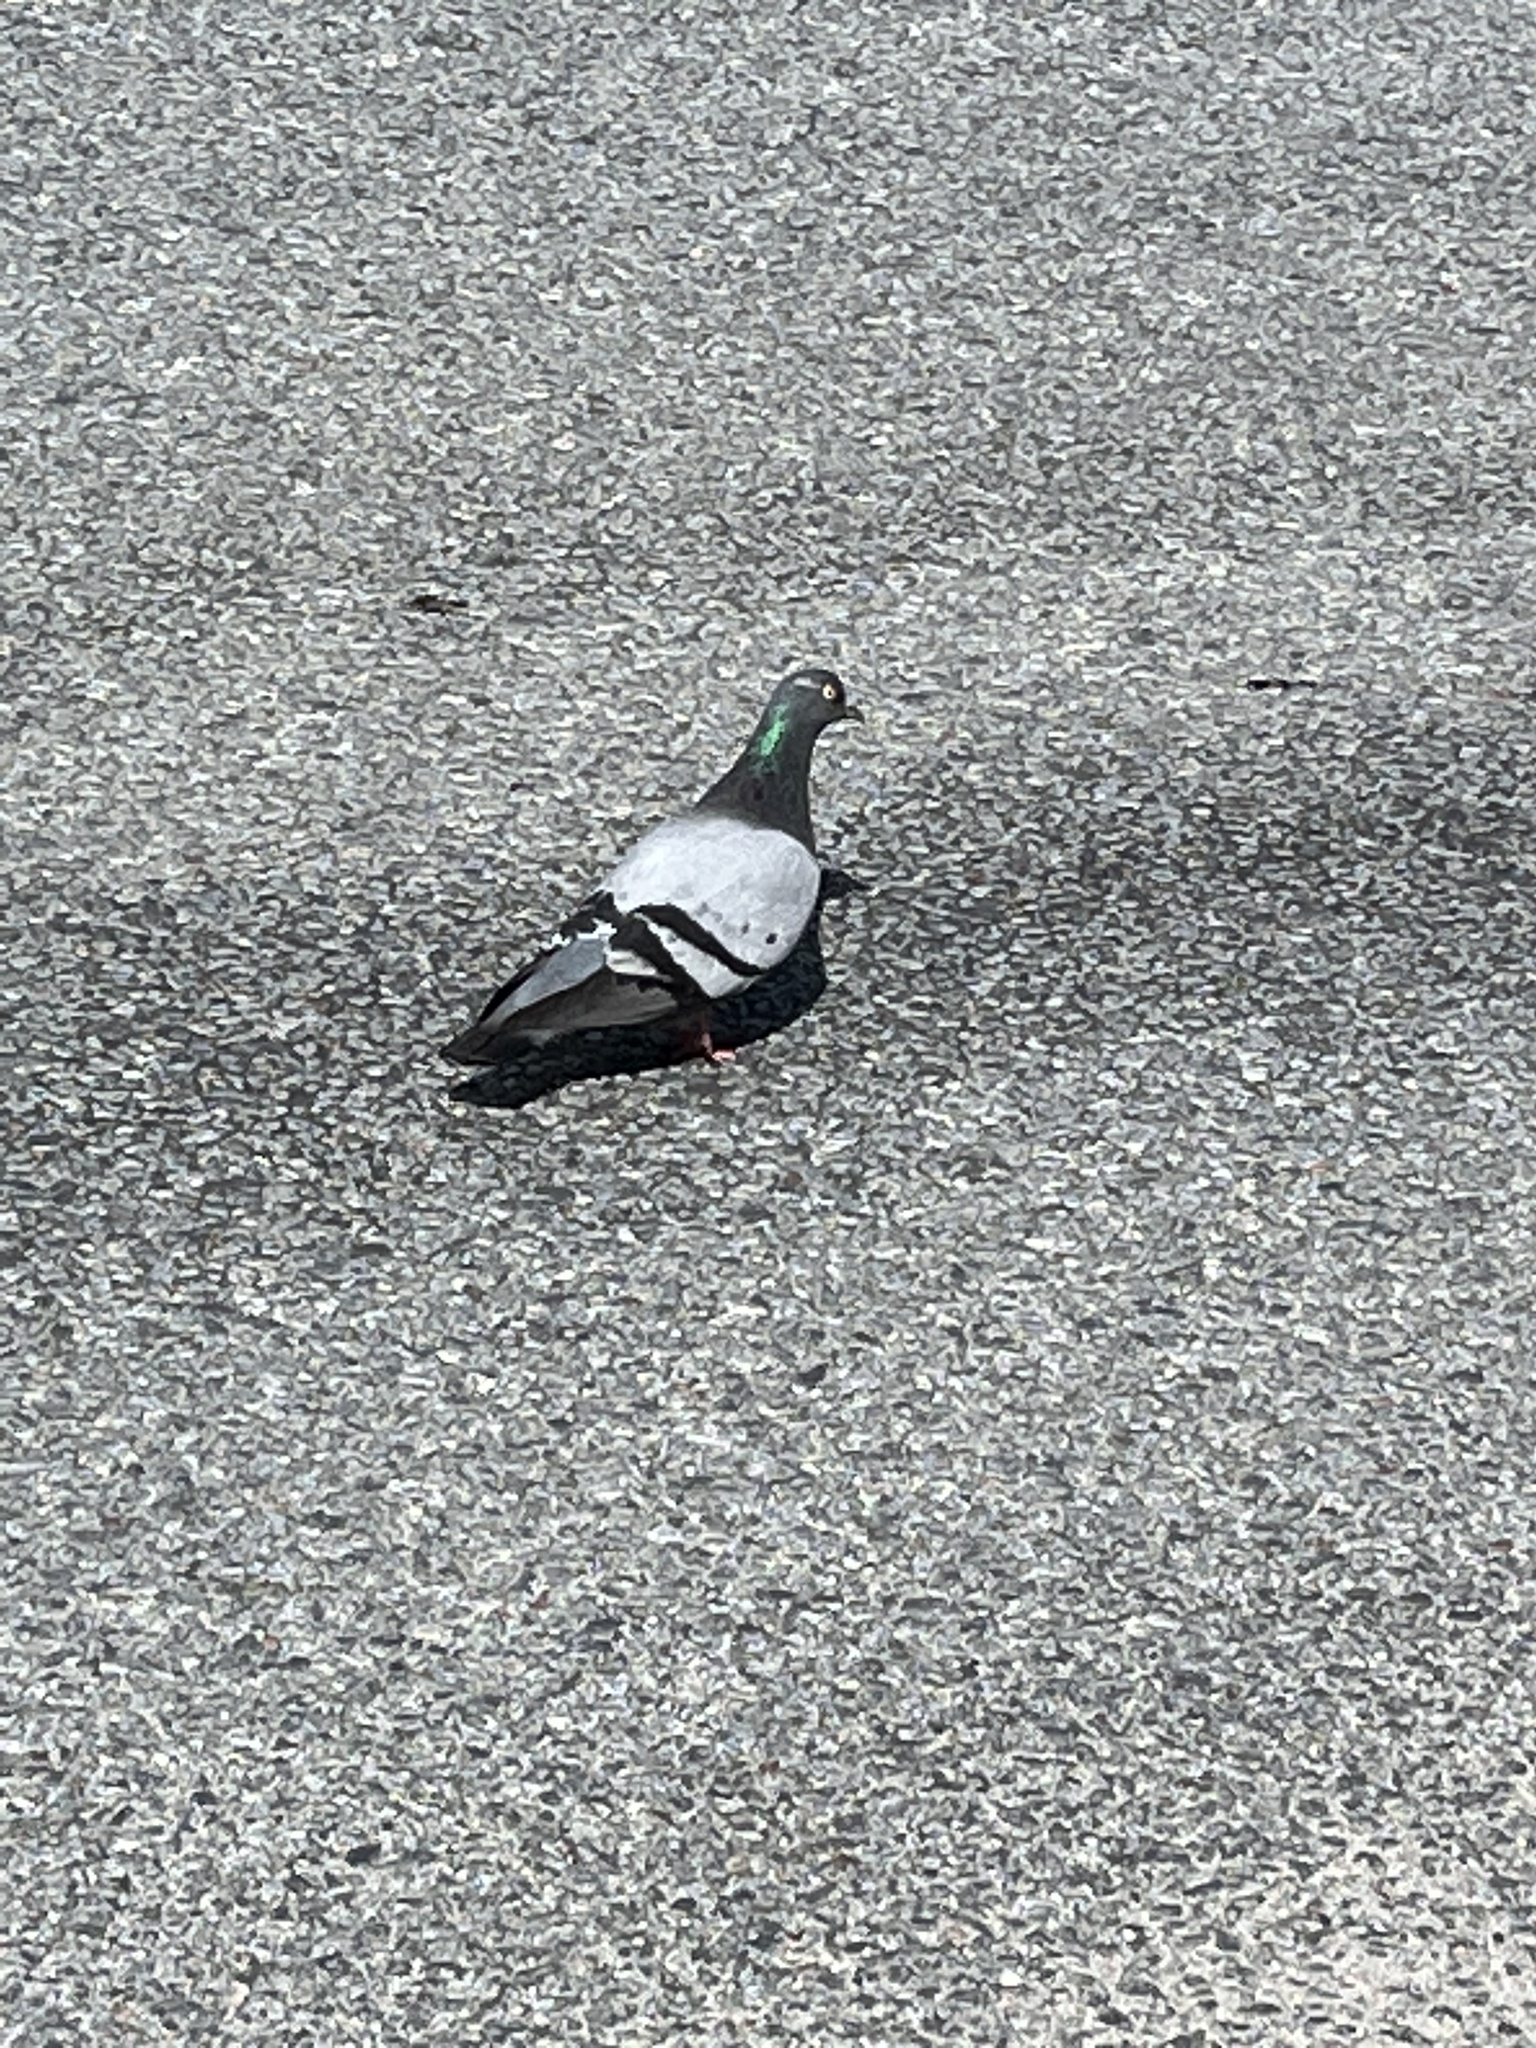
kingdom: Animalia
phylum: Chordata
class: Aves
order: Columbiformes
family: Columbidae
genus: Columba
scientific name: Columba livia
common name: Rock pigeon
